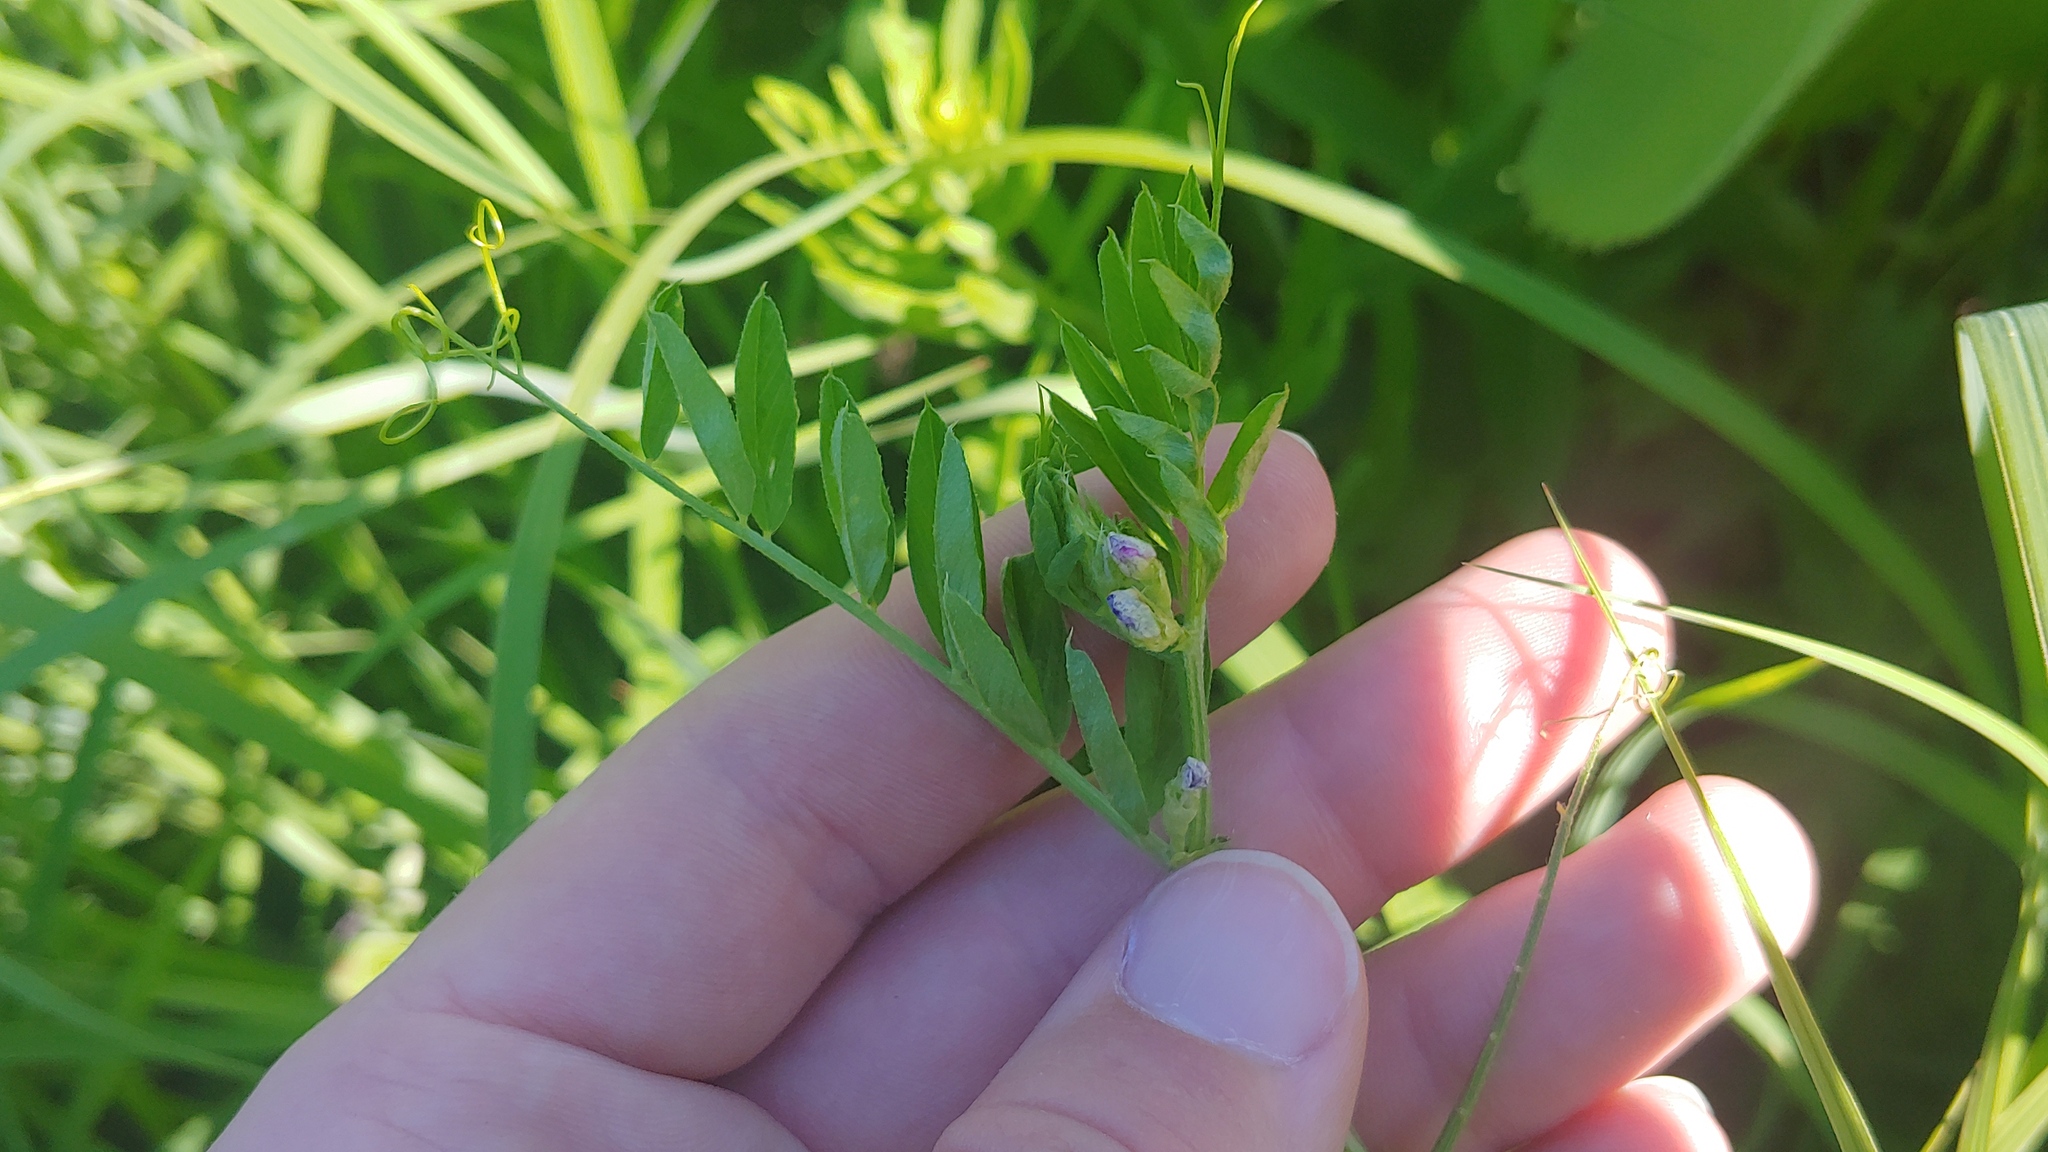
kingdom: Plantae
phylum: Tracheophyta
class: Magnoliopsida
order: Fabales
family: Fabaceae
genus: Vicia
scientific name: Vicia americana
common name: American vetch
